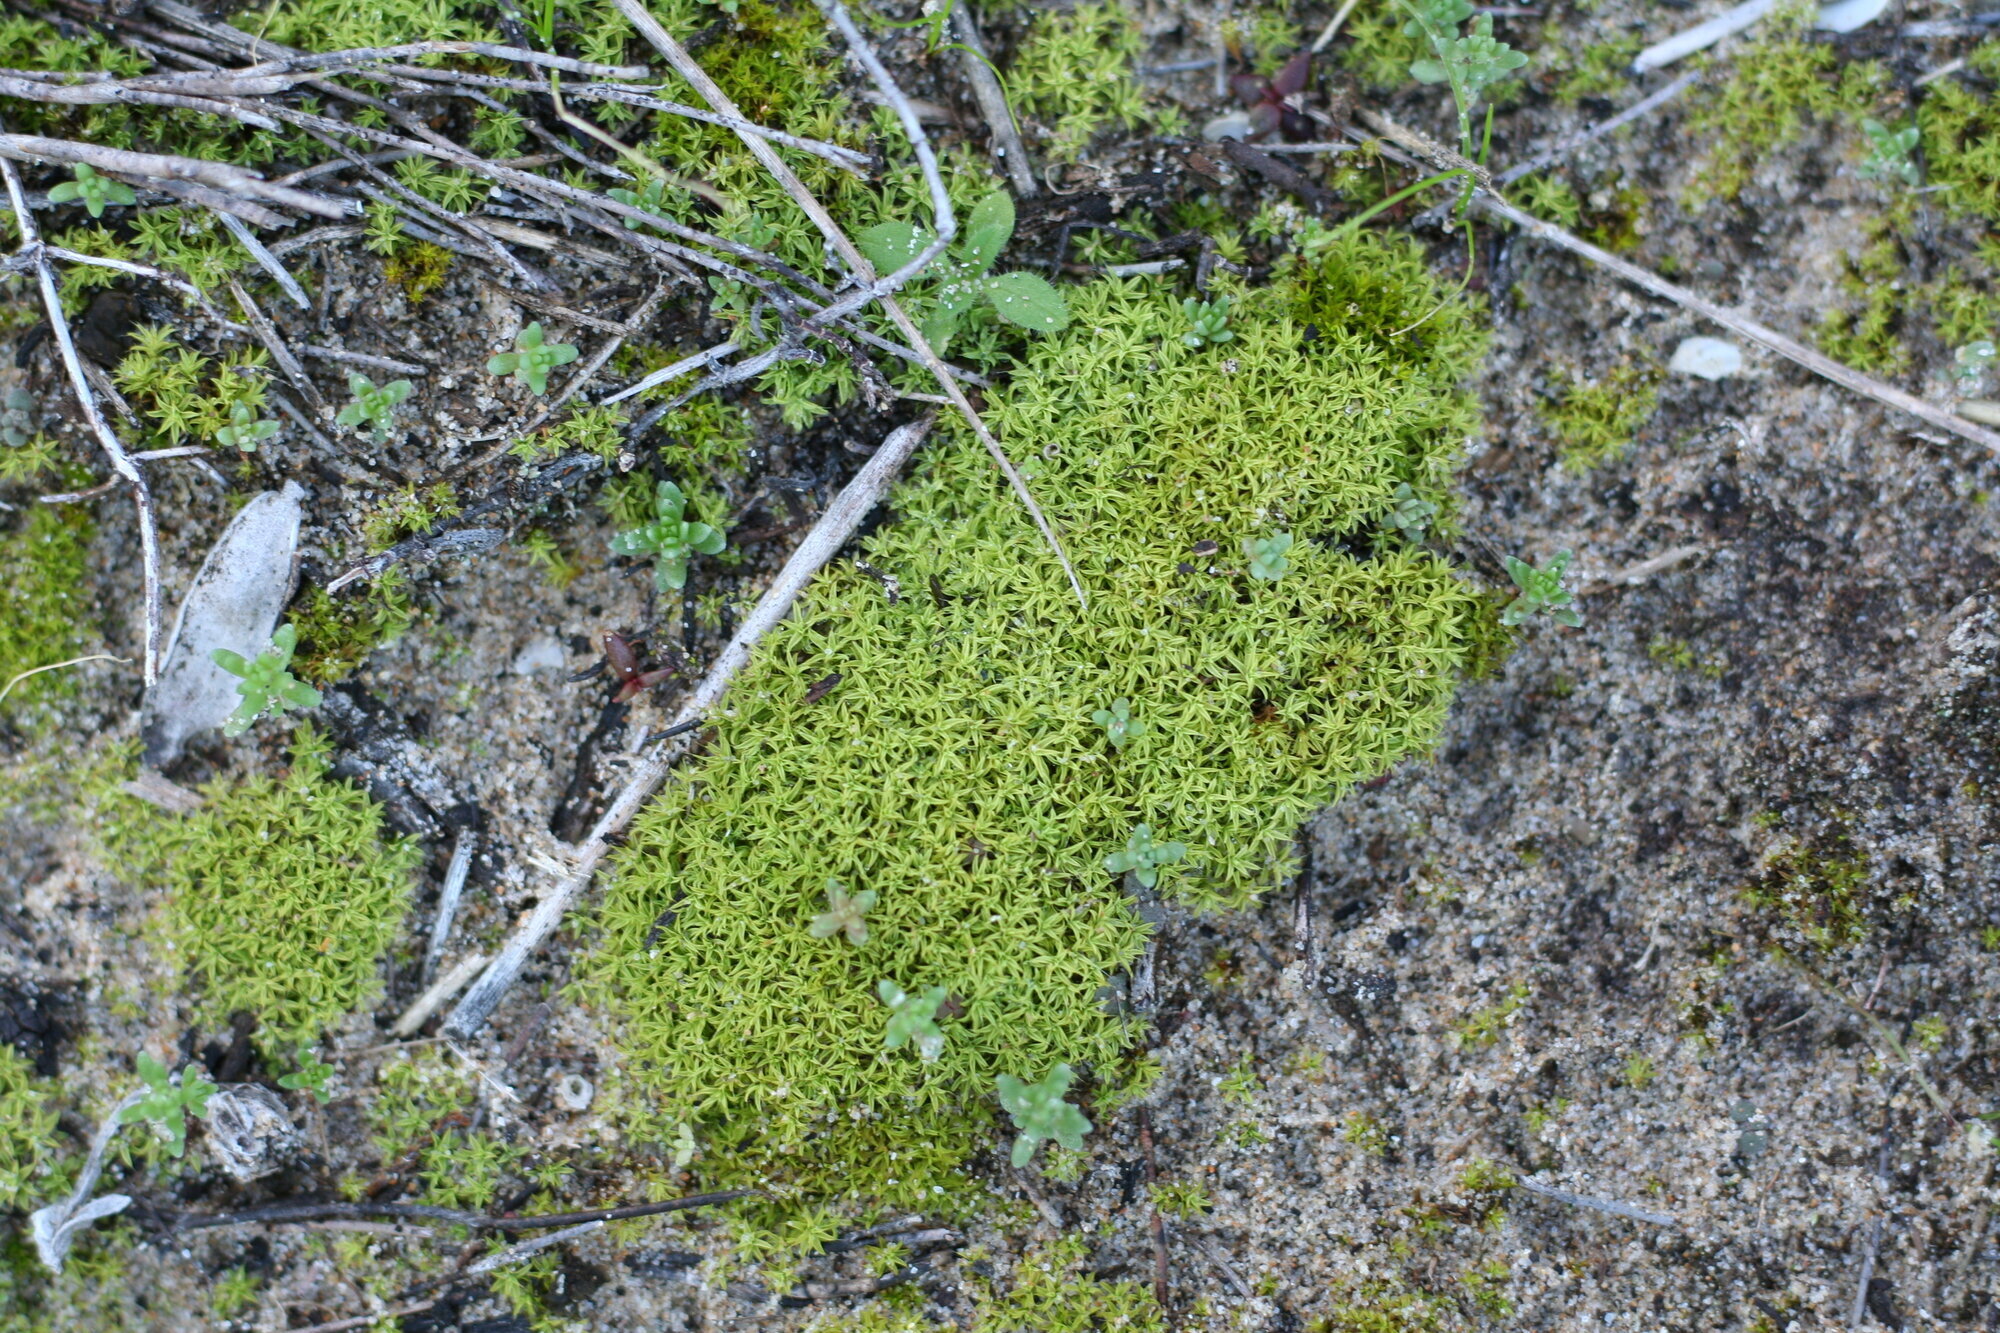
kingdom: Plantae
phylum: Bryophyta
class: Bryopsida
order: Pottiales
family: Pottiaceae
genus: Pseudocrossidium
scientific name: Pseudocrossidium crinitum
